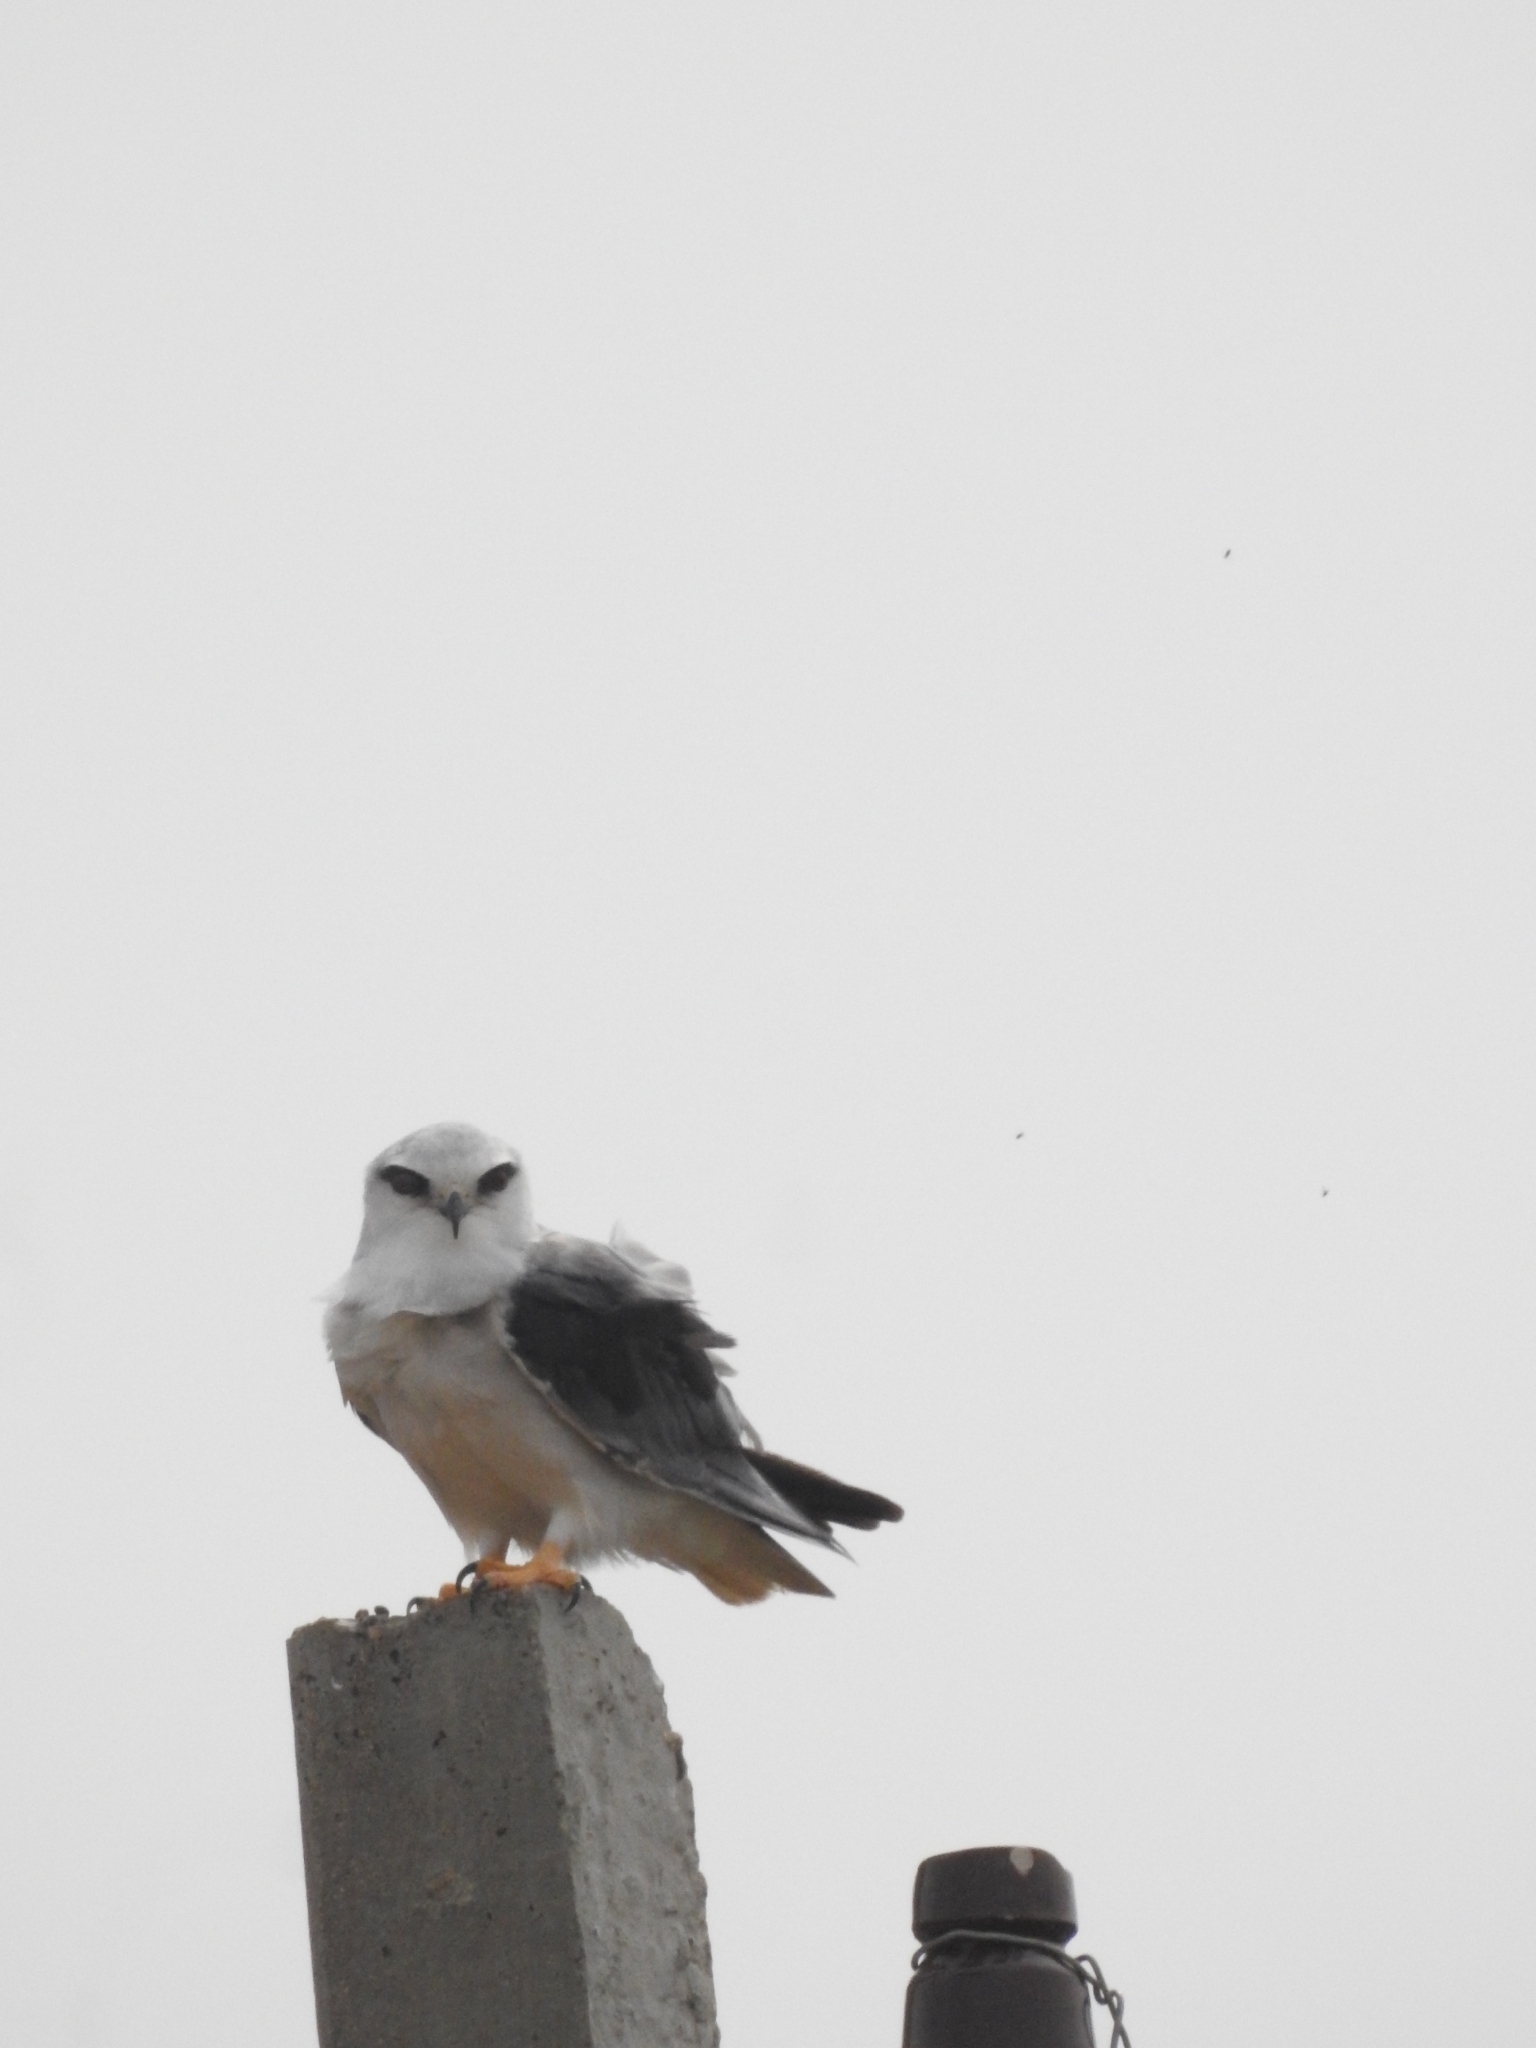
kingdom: Animalia
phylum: Chordata
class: Aves
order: Accipitriformes
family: Accipitridae
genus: Elanus
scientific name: Elanus caeruleus
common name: Black-winged kite
